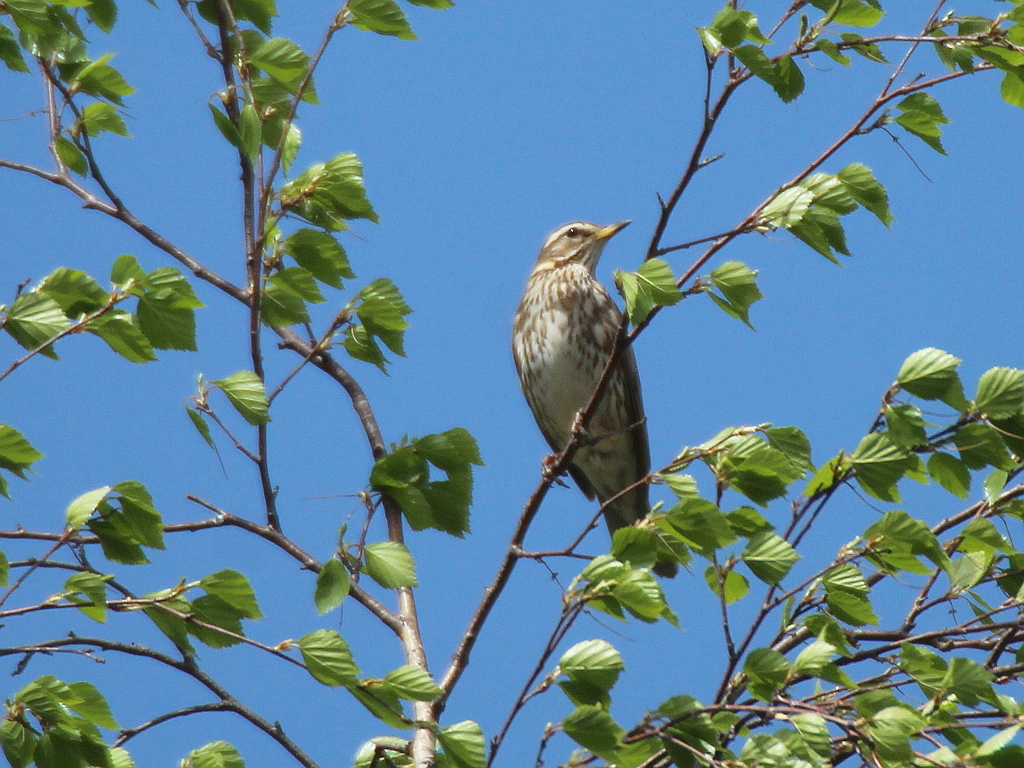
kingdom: Animalia
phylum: Chordata
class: Aves
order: Passeriformes
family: Turdidae
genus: Turdus
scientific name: Turdus iliacus
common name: Redwing
